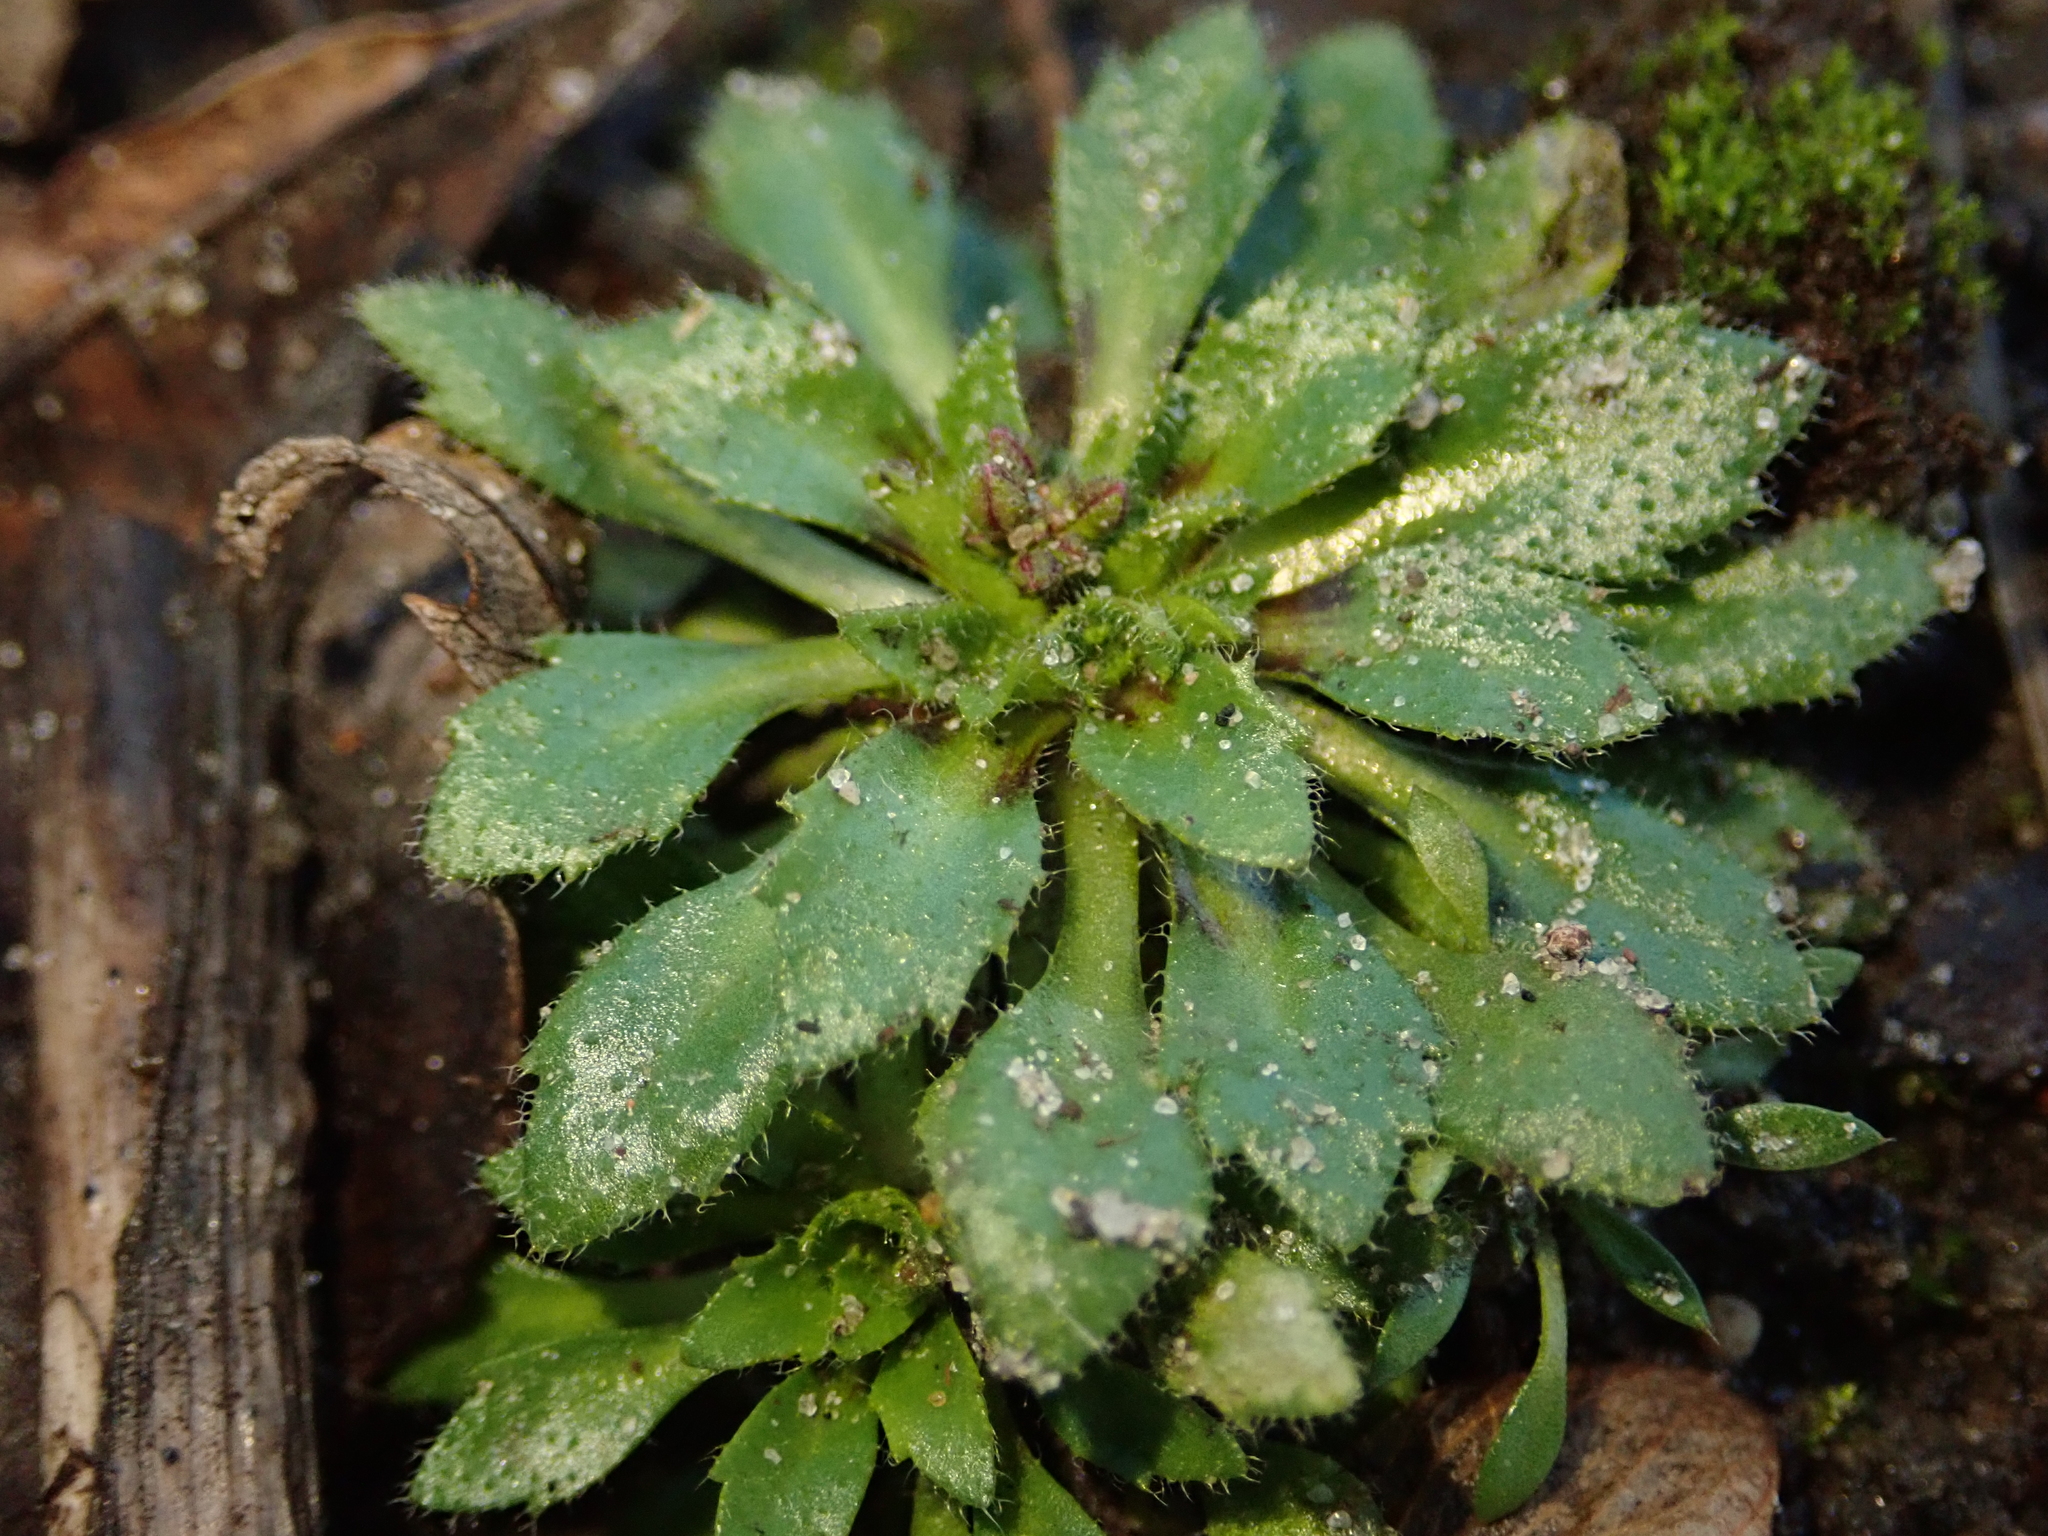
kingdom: Plantae
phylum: Tracheophyta
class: Magnoliopsida
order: Brassicales
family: Brassicaceae
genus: Draba
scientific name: Draba verna
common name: Spring draba
